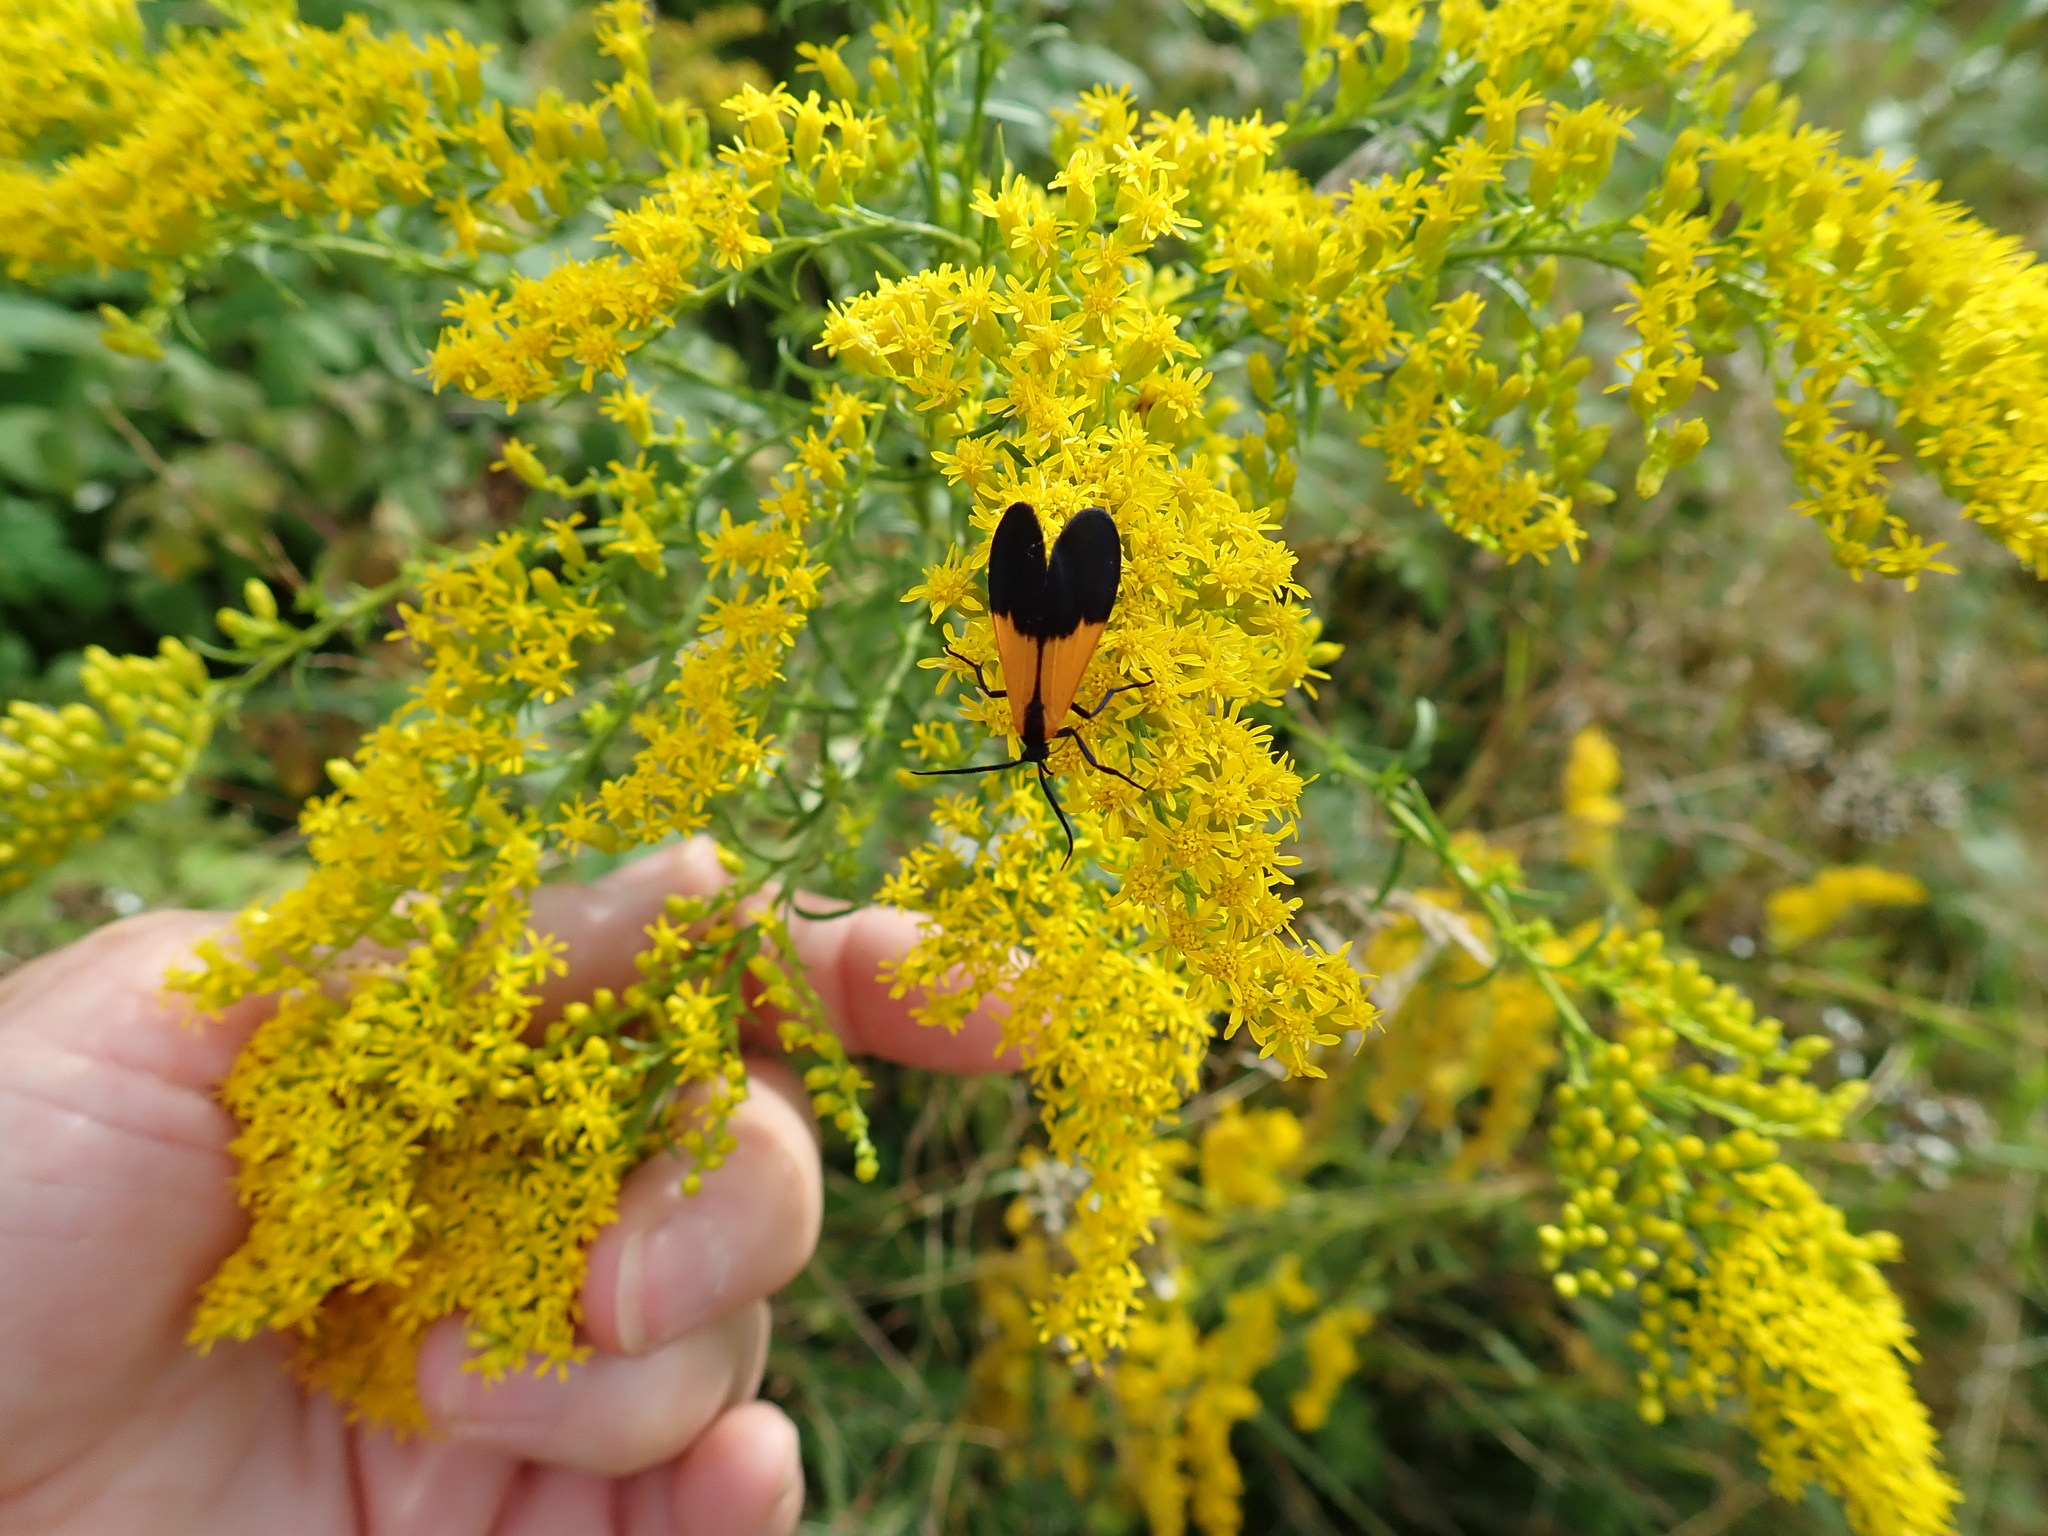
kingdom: Animalia
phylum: Arthropoda
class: Insecta
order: Lepidoptera
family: Erebidae
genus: Lycomorpha
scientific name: Lycomorpha pholus
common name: Black-and-yellow lichen moth
